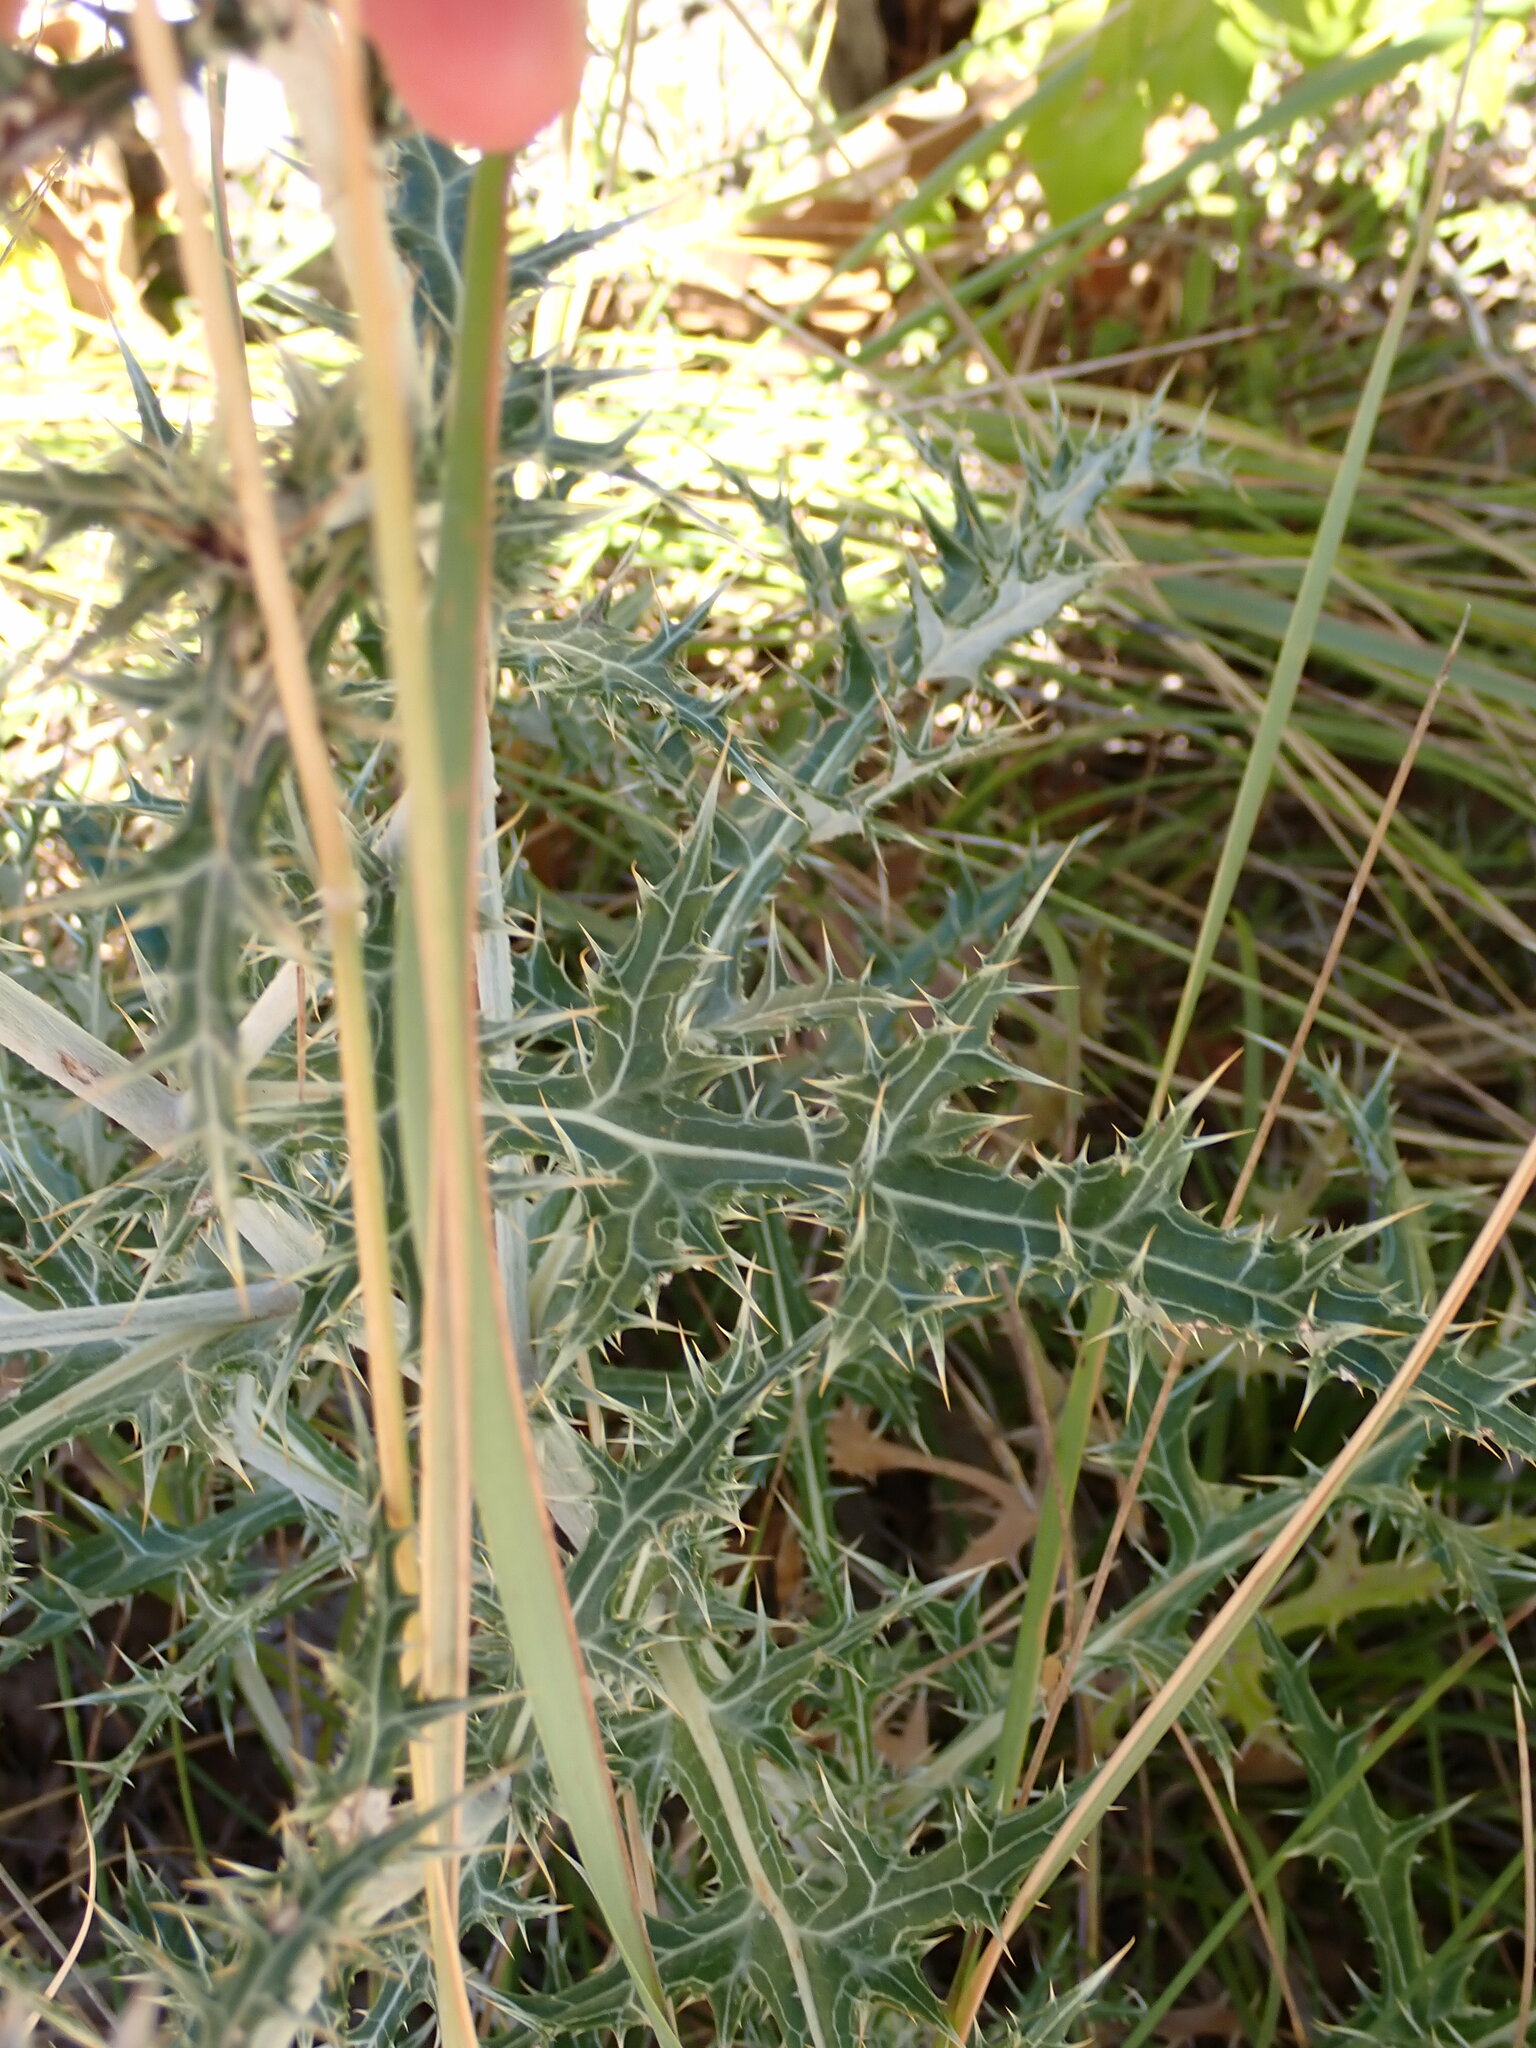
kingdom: Plantae
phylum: Tracheophyta
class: Magnoliopsida
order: Asterales
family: Asteraceae
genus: Echinops
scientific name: Echinops ritro
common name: Globe thistle
